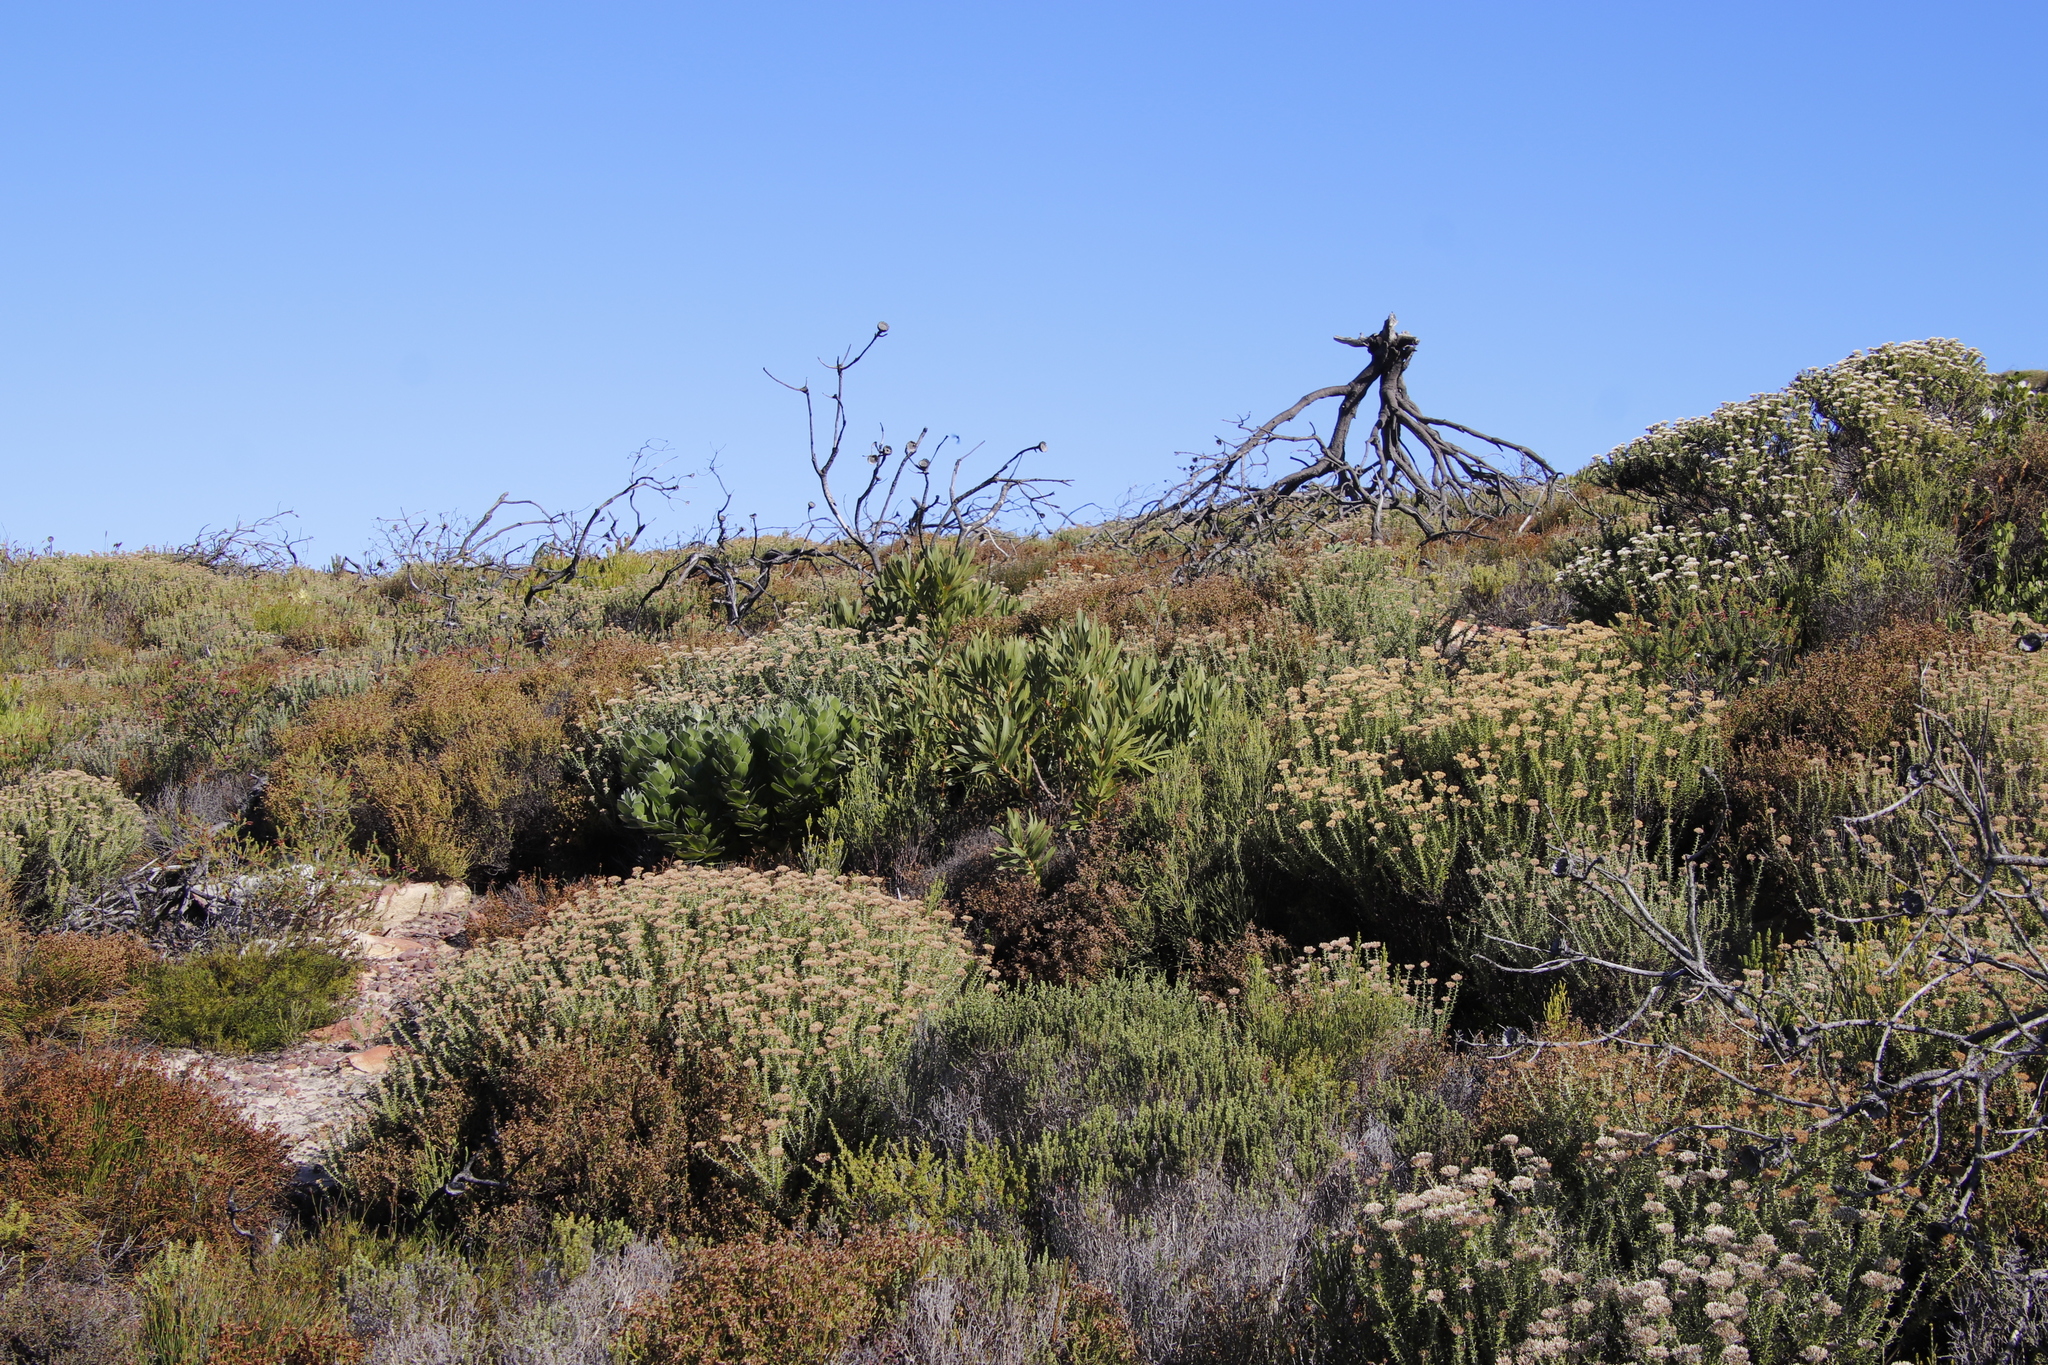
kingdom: Plantae
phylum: Tracheophyta
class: Magnoliopsida
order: Proteales
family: Proteaceae
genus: Protea
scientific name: Protea lepidocarpodendron
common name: Black-bearded protea
